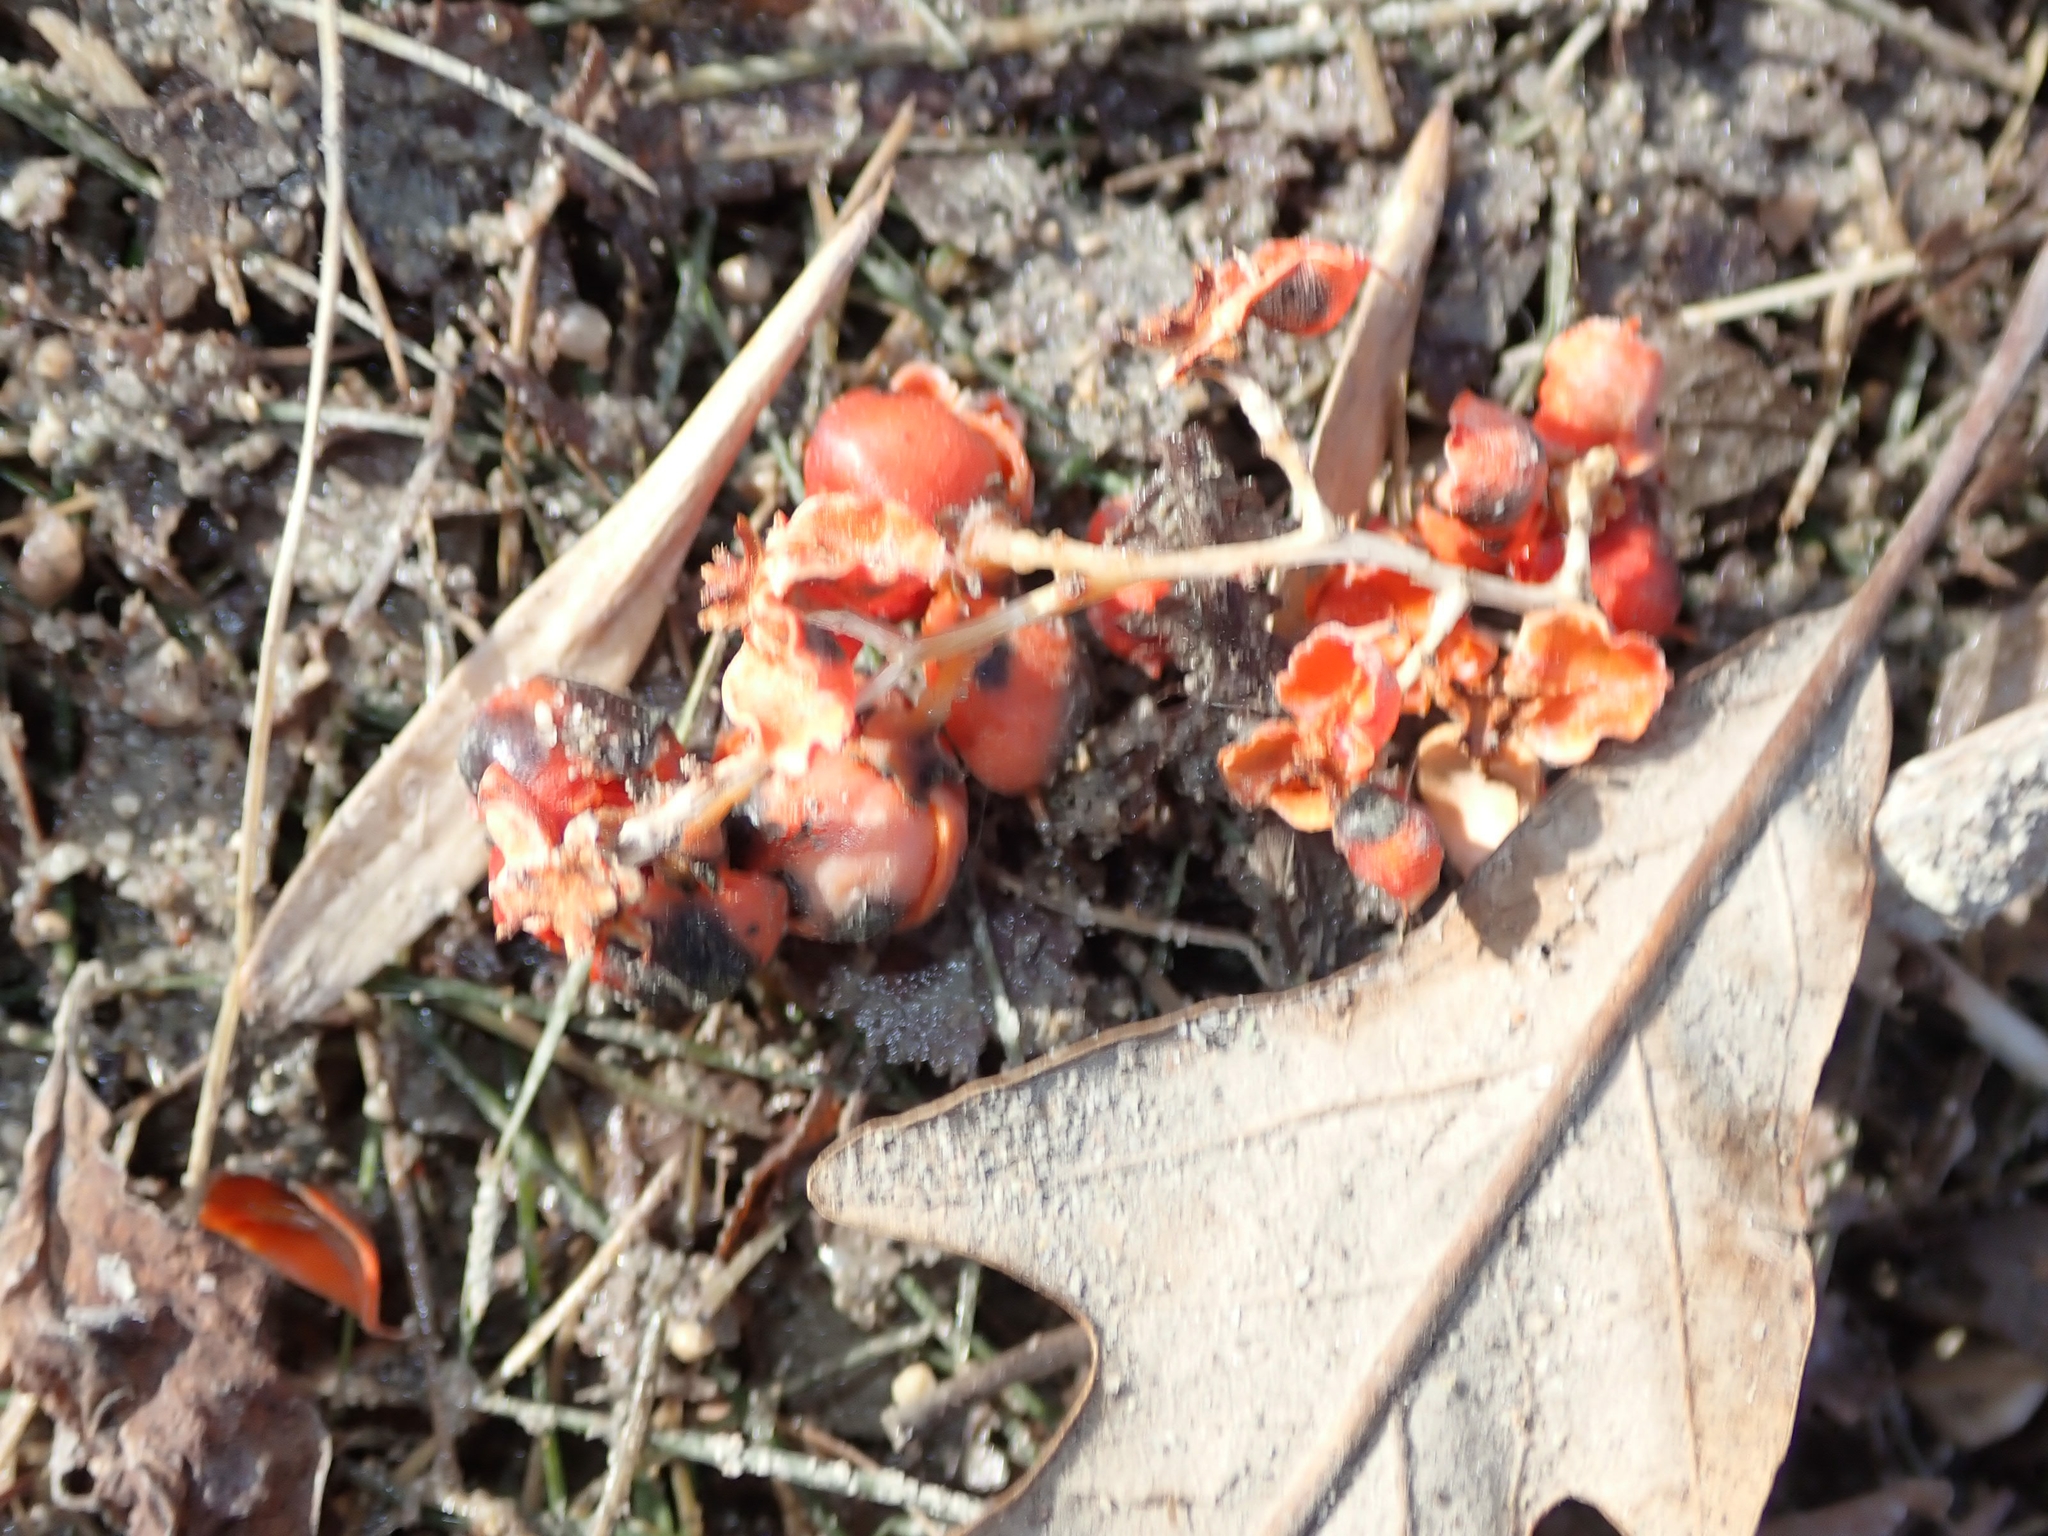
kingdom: Plantae
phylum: Tracheophyta
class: Magnoliopsida
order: Celastrales
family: Celastraceae
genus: Celastrus
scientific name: Celastrus scandens
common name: American bittersweet
